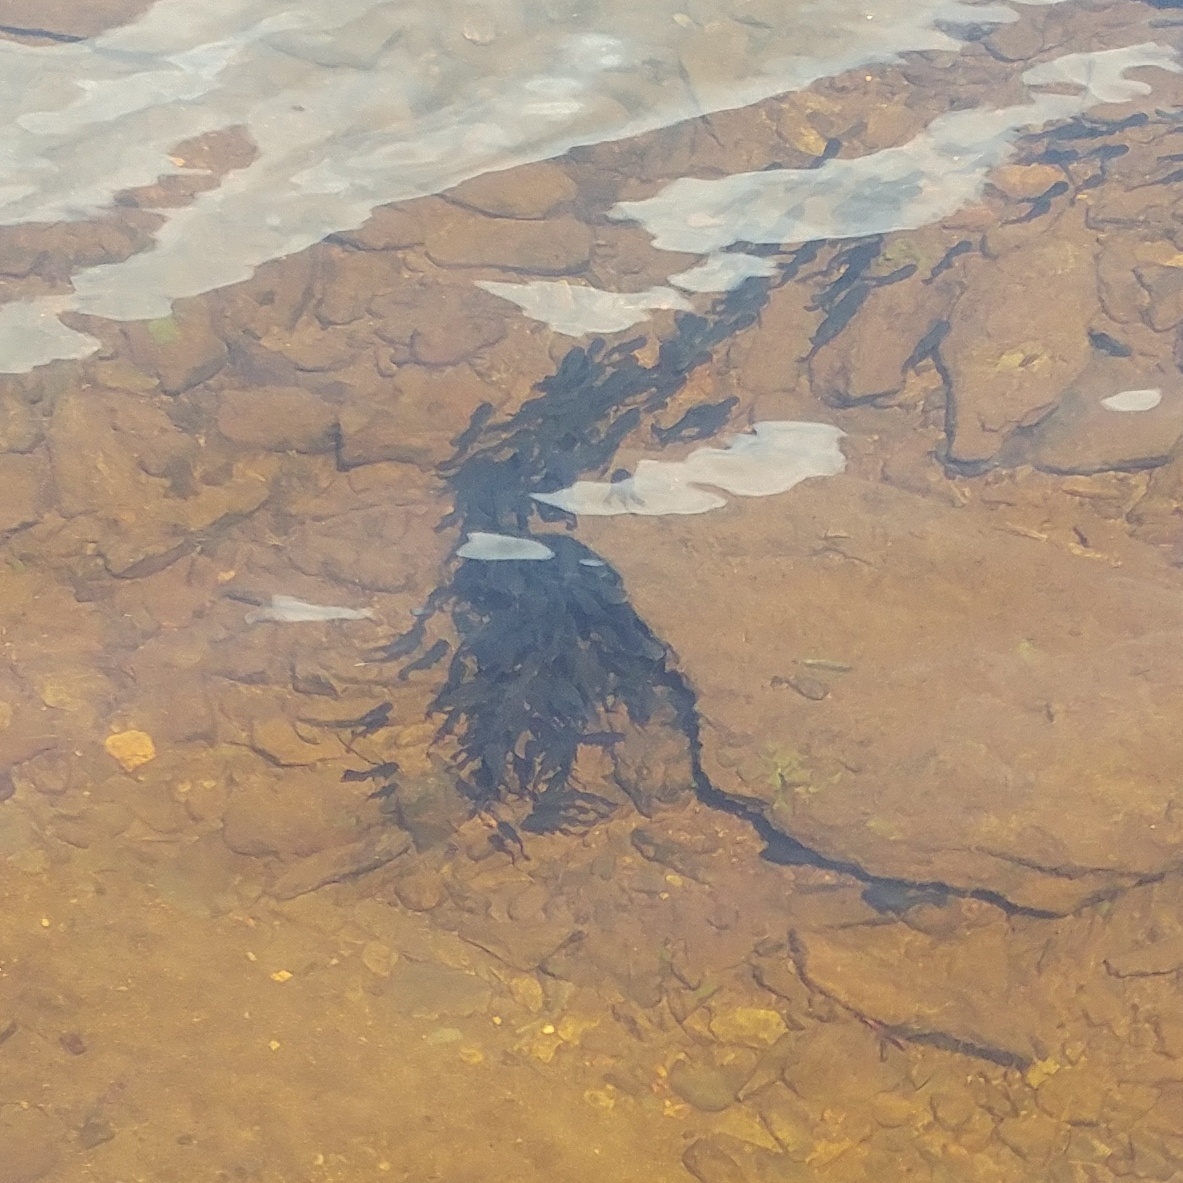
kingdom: Animalia
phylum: Chordata
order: Siluriformes
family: Ictaluridae
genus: Ameiurus
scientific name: Ameiurus nebulosus
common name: Brown bullhead
